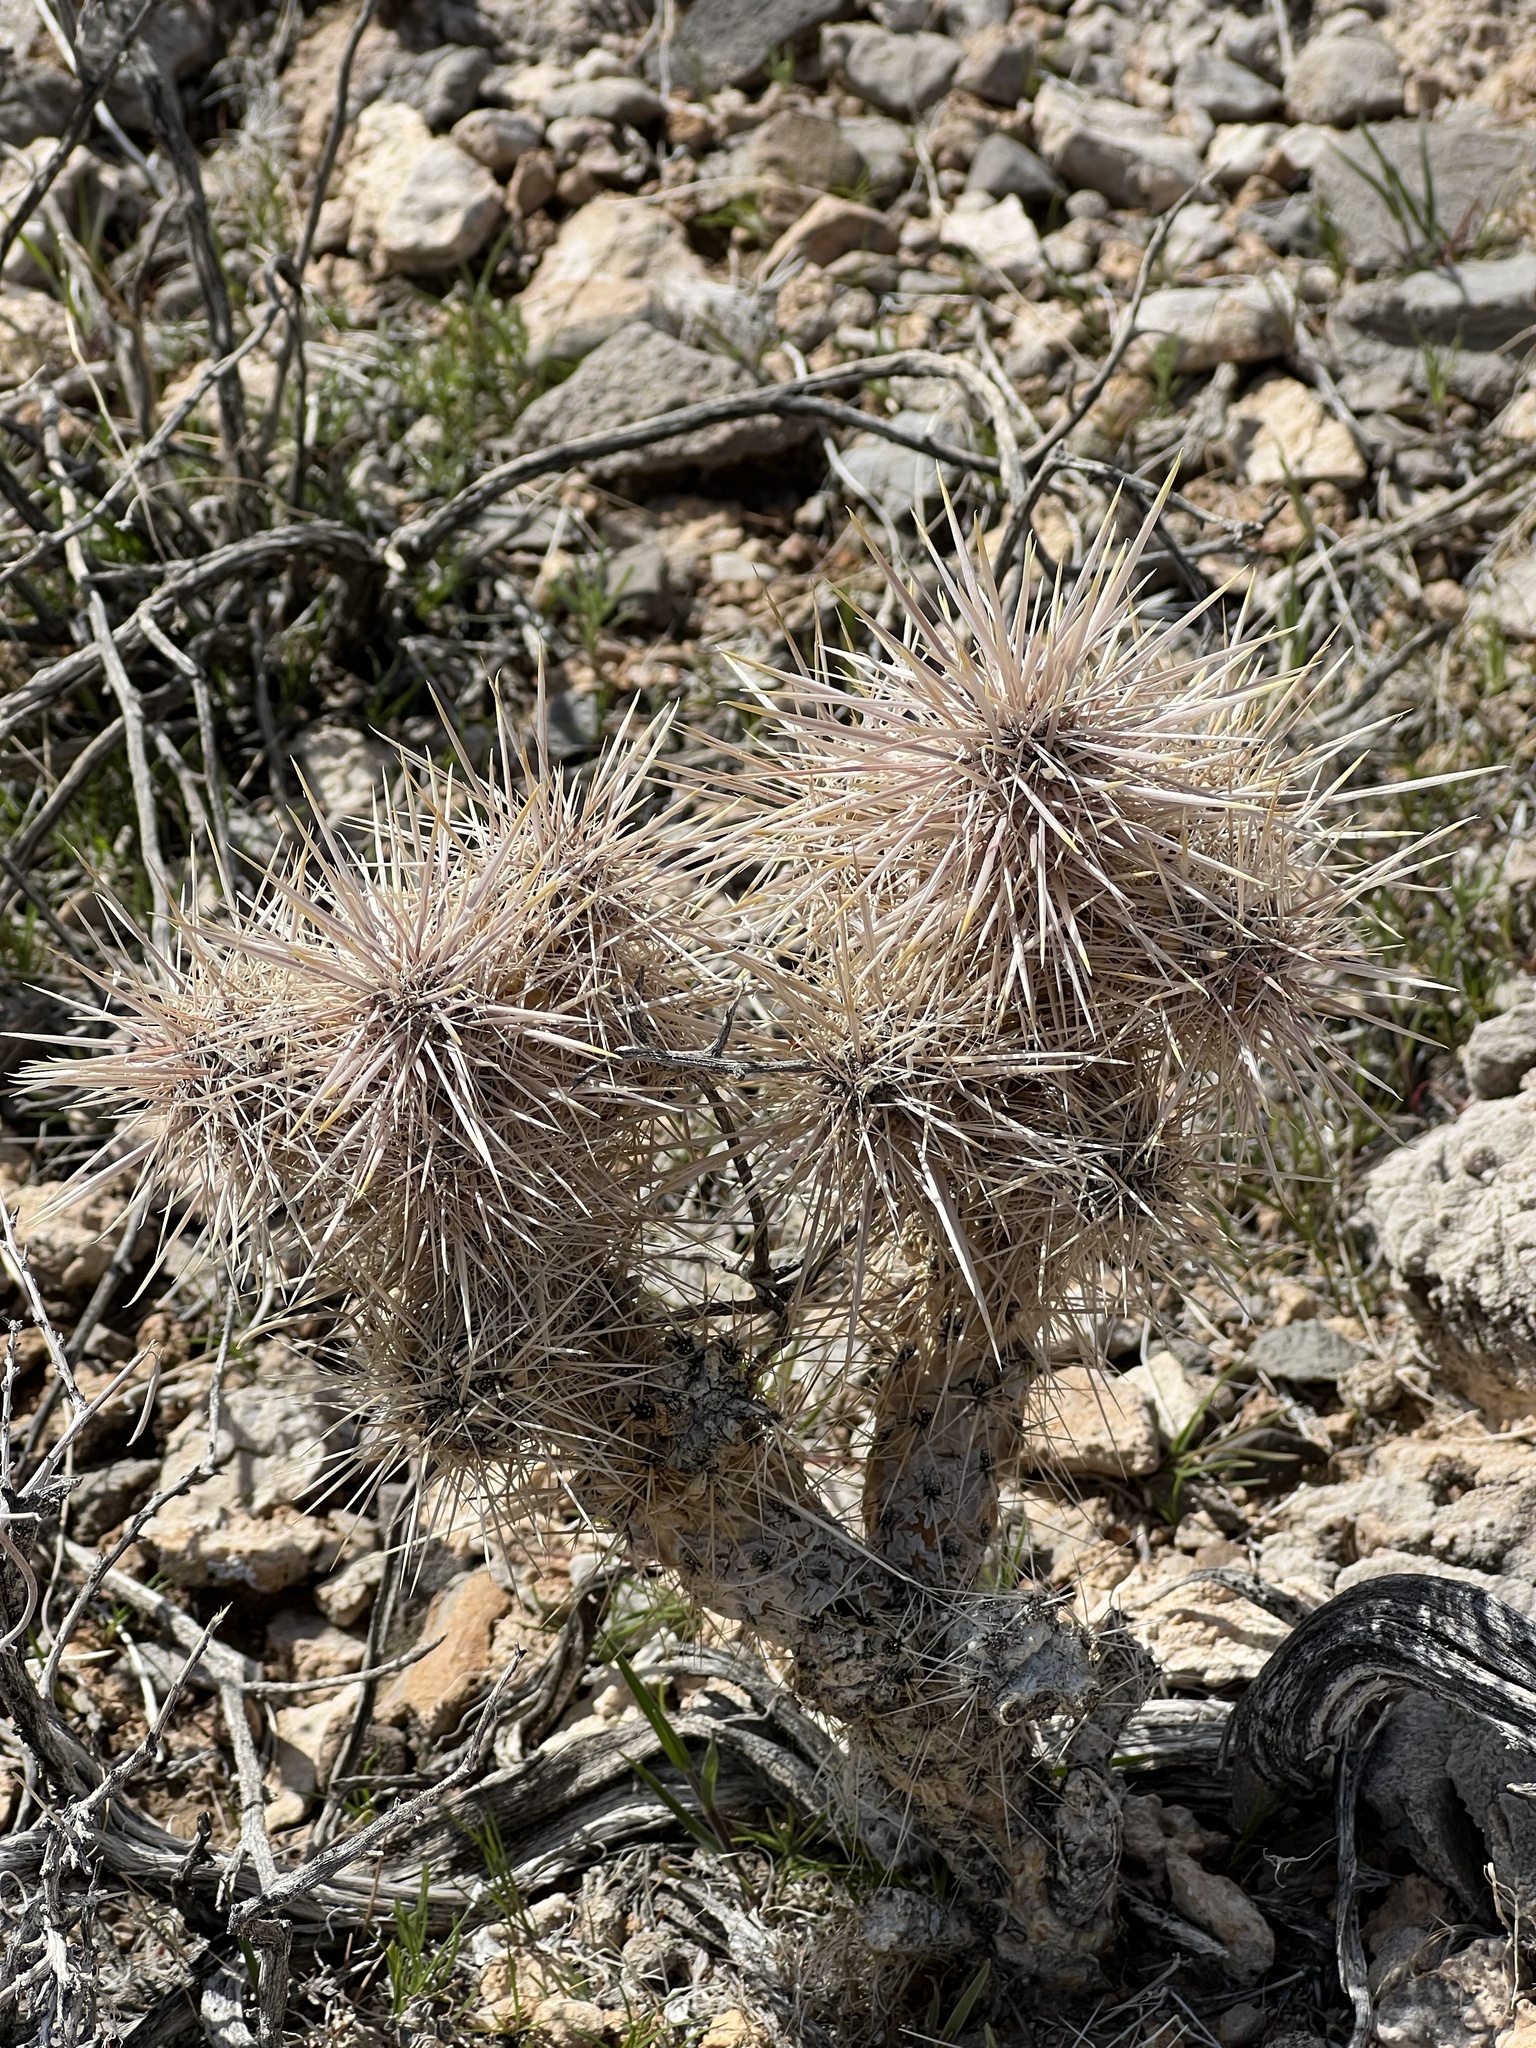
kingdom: Plantae
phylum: Tracheophyta
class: Magnoliopsida
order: Caryophyllales
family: Cactaceae
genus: Cylindropuntia
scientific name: Cylindropuntia echinocarpa
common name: Ground cholla
